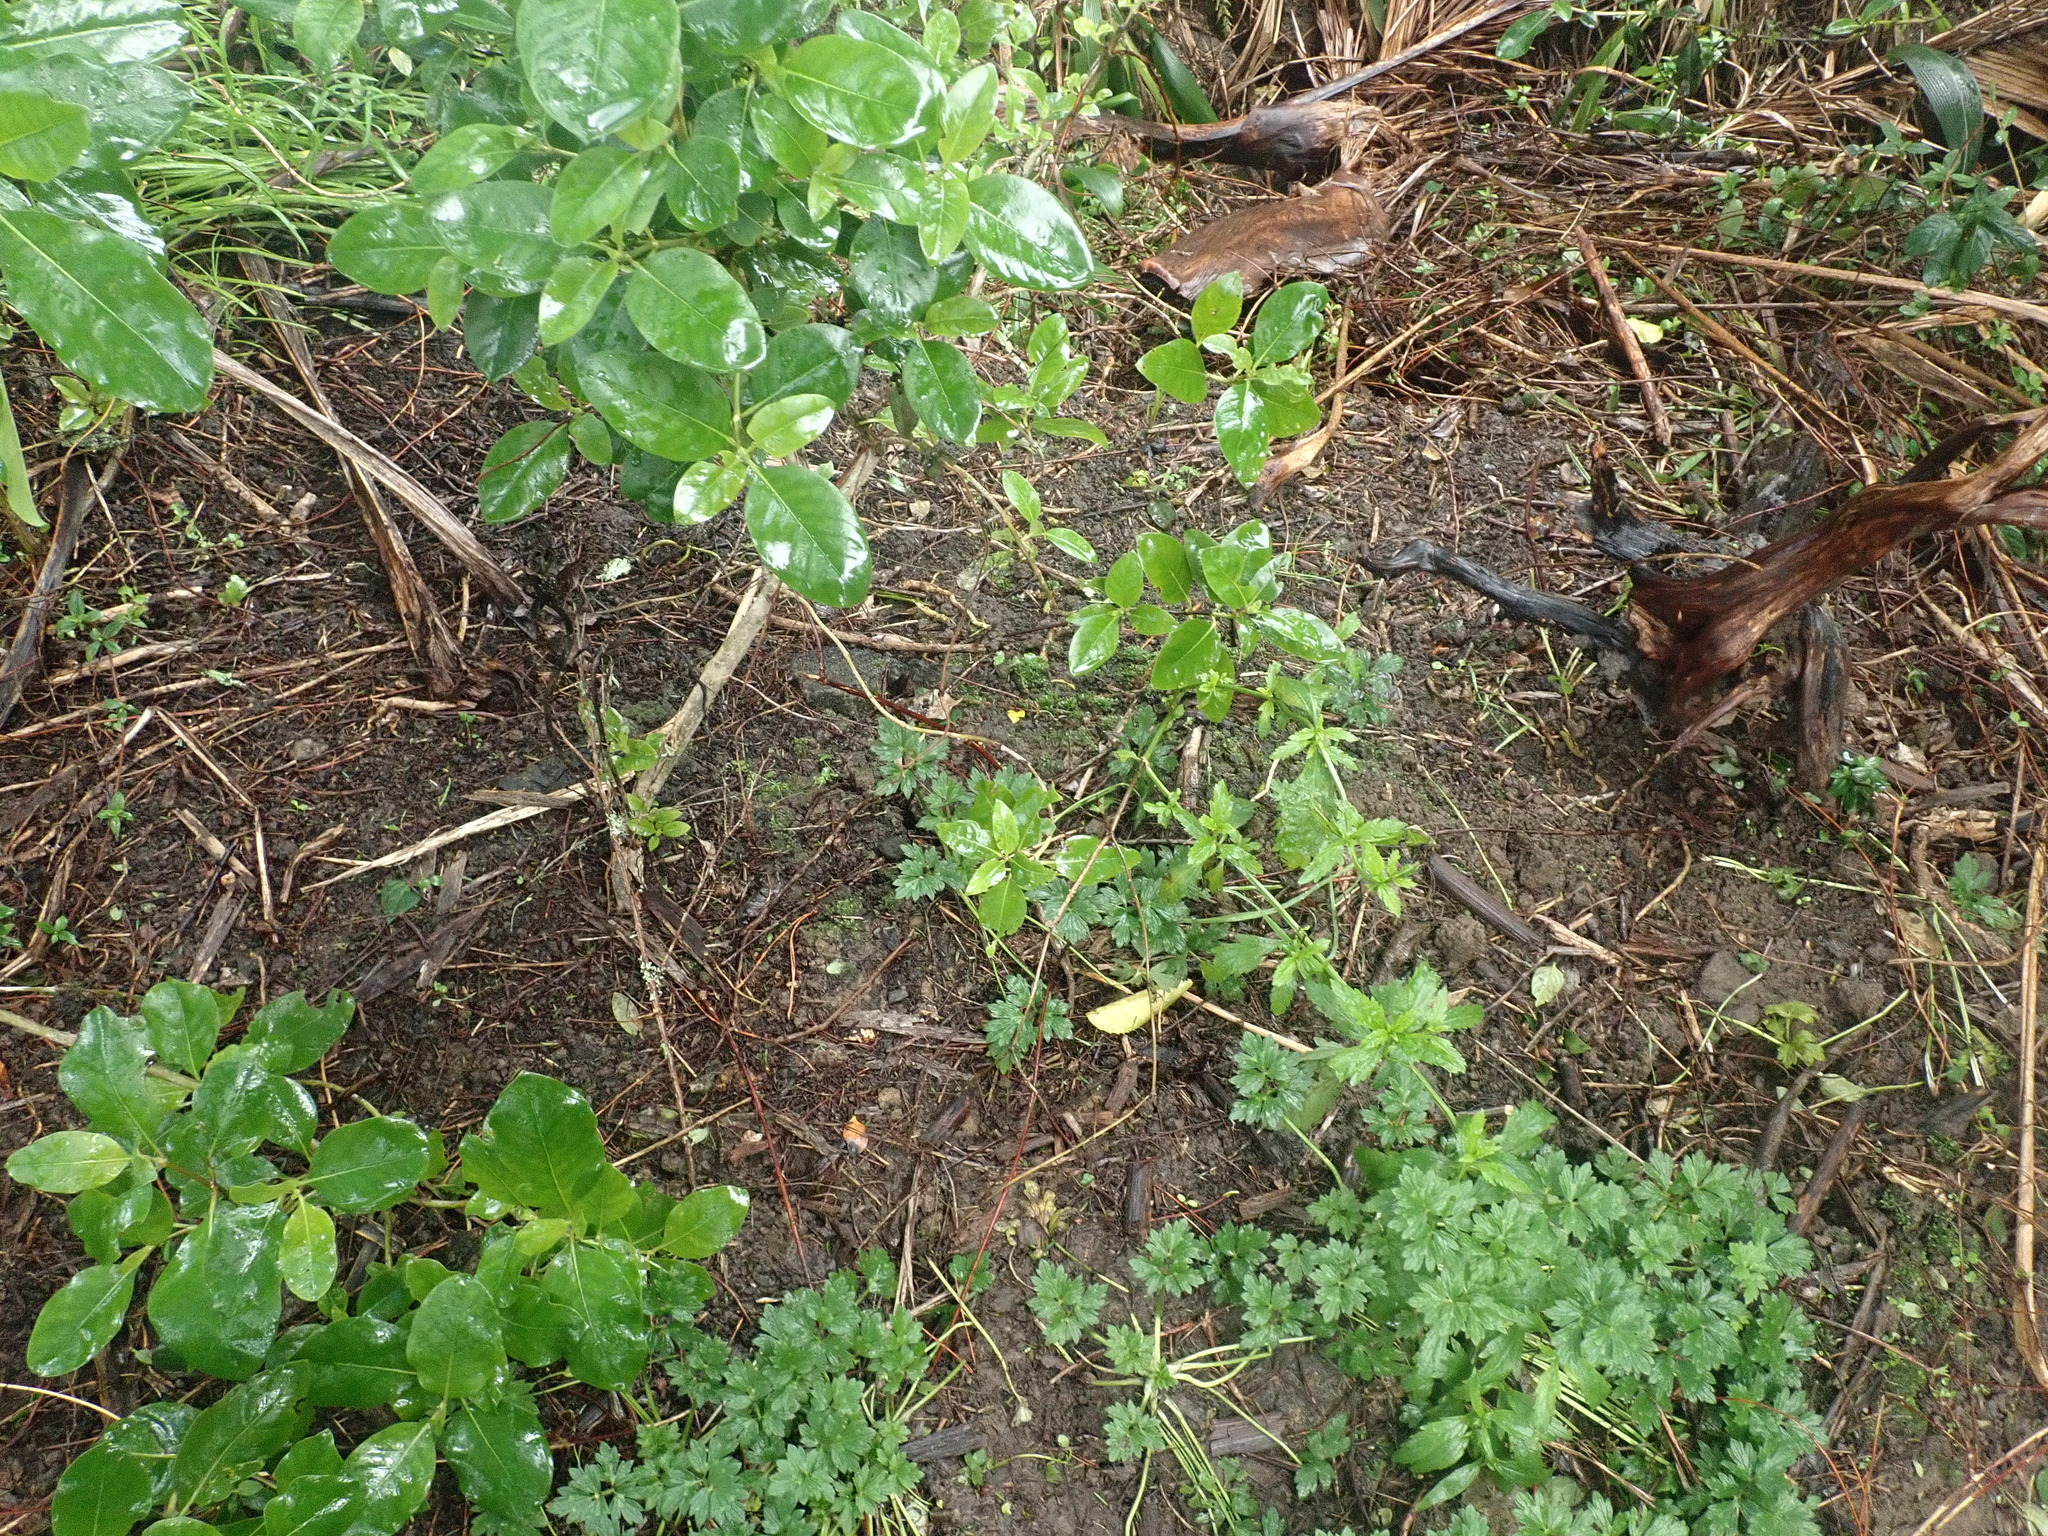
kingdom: Plantae
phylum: Tracheophyta
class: Magnoliopsida
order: Ranunculales
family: Ranunculaceae
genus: Ranunculus
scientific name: Ranunculus repens
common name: Creeping buttercup
